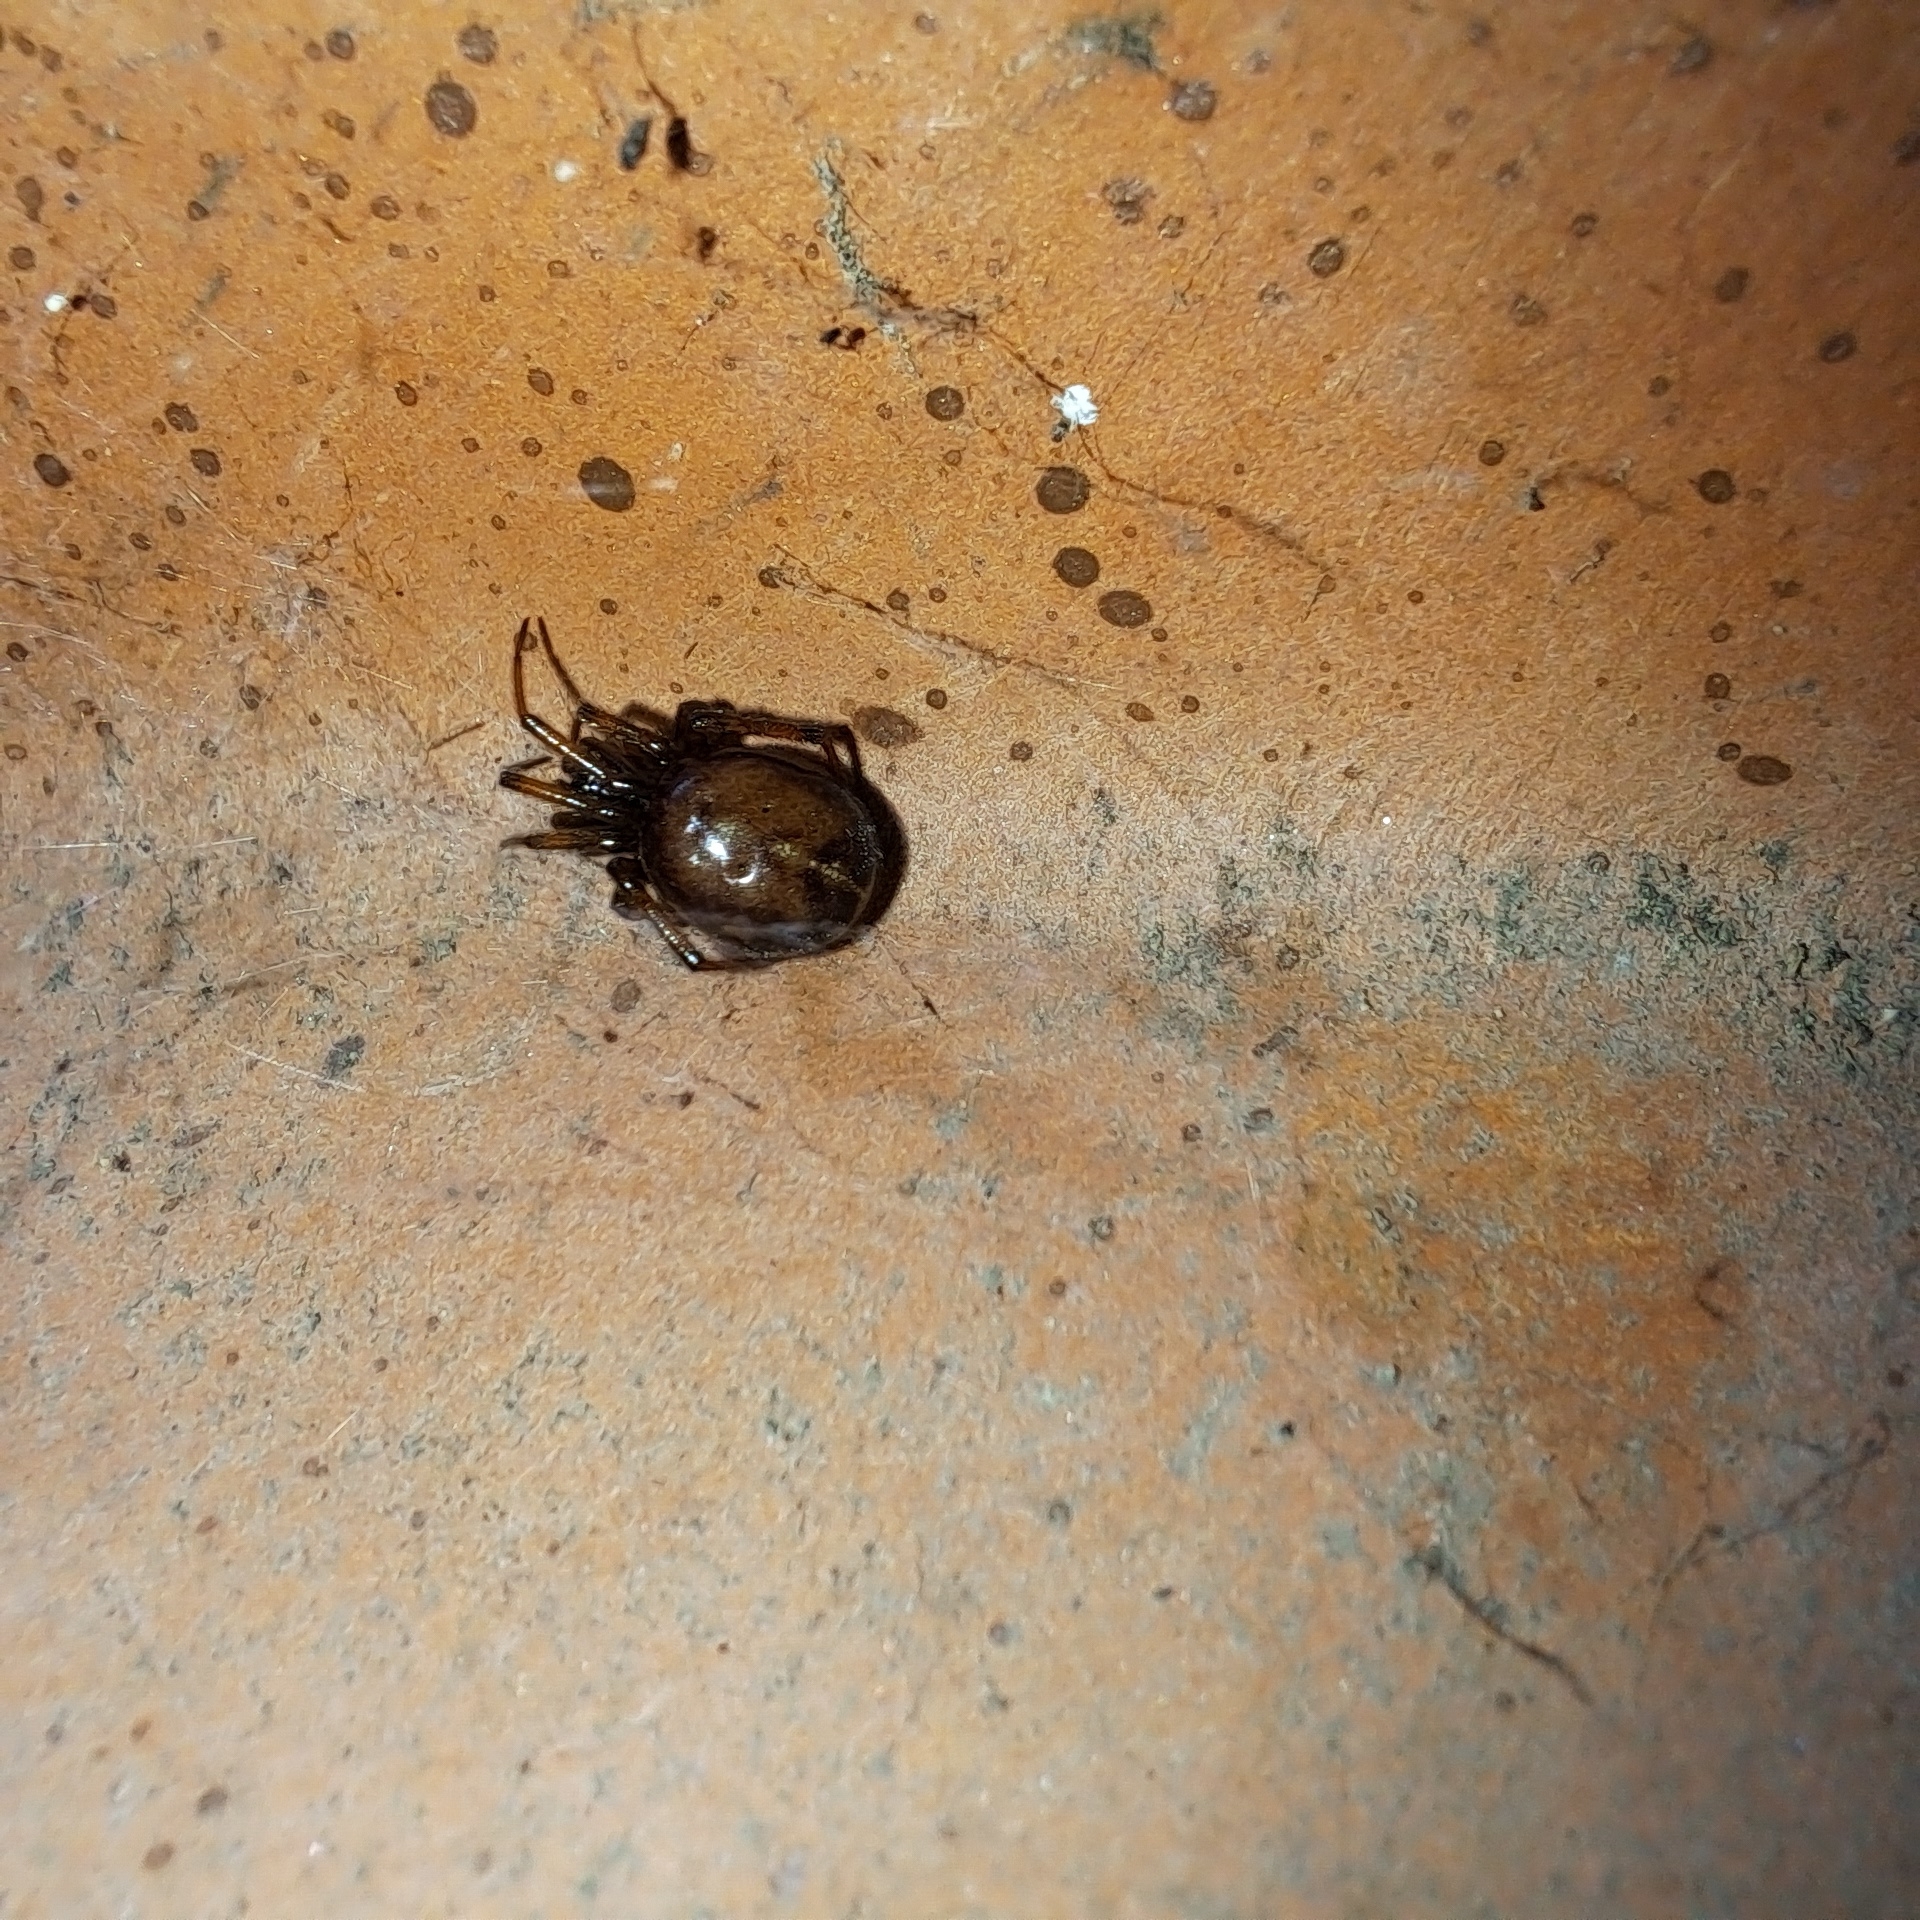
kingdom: Animalia
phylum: Arthropoda
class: Arachnida
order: Araneae
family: Theridiidae
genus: Steatoda
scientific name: Steatoda bipunctata
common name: False widow
